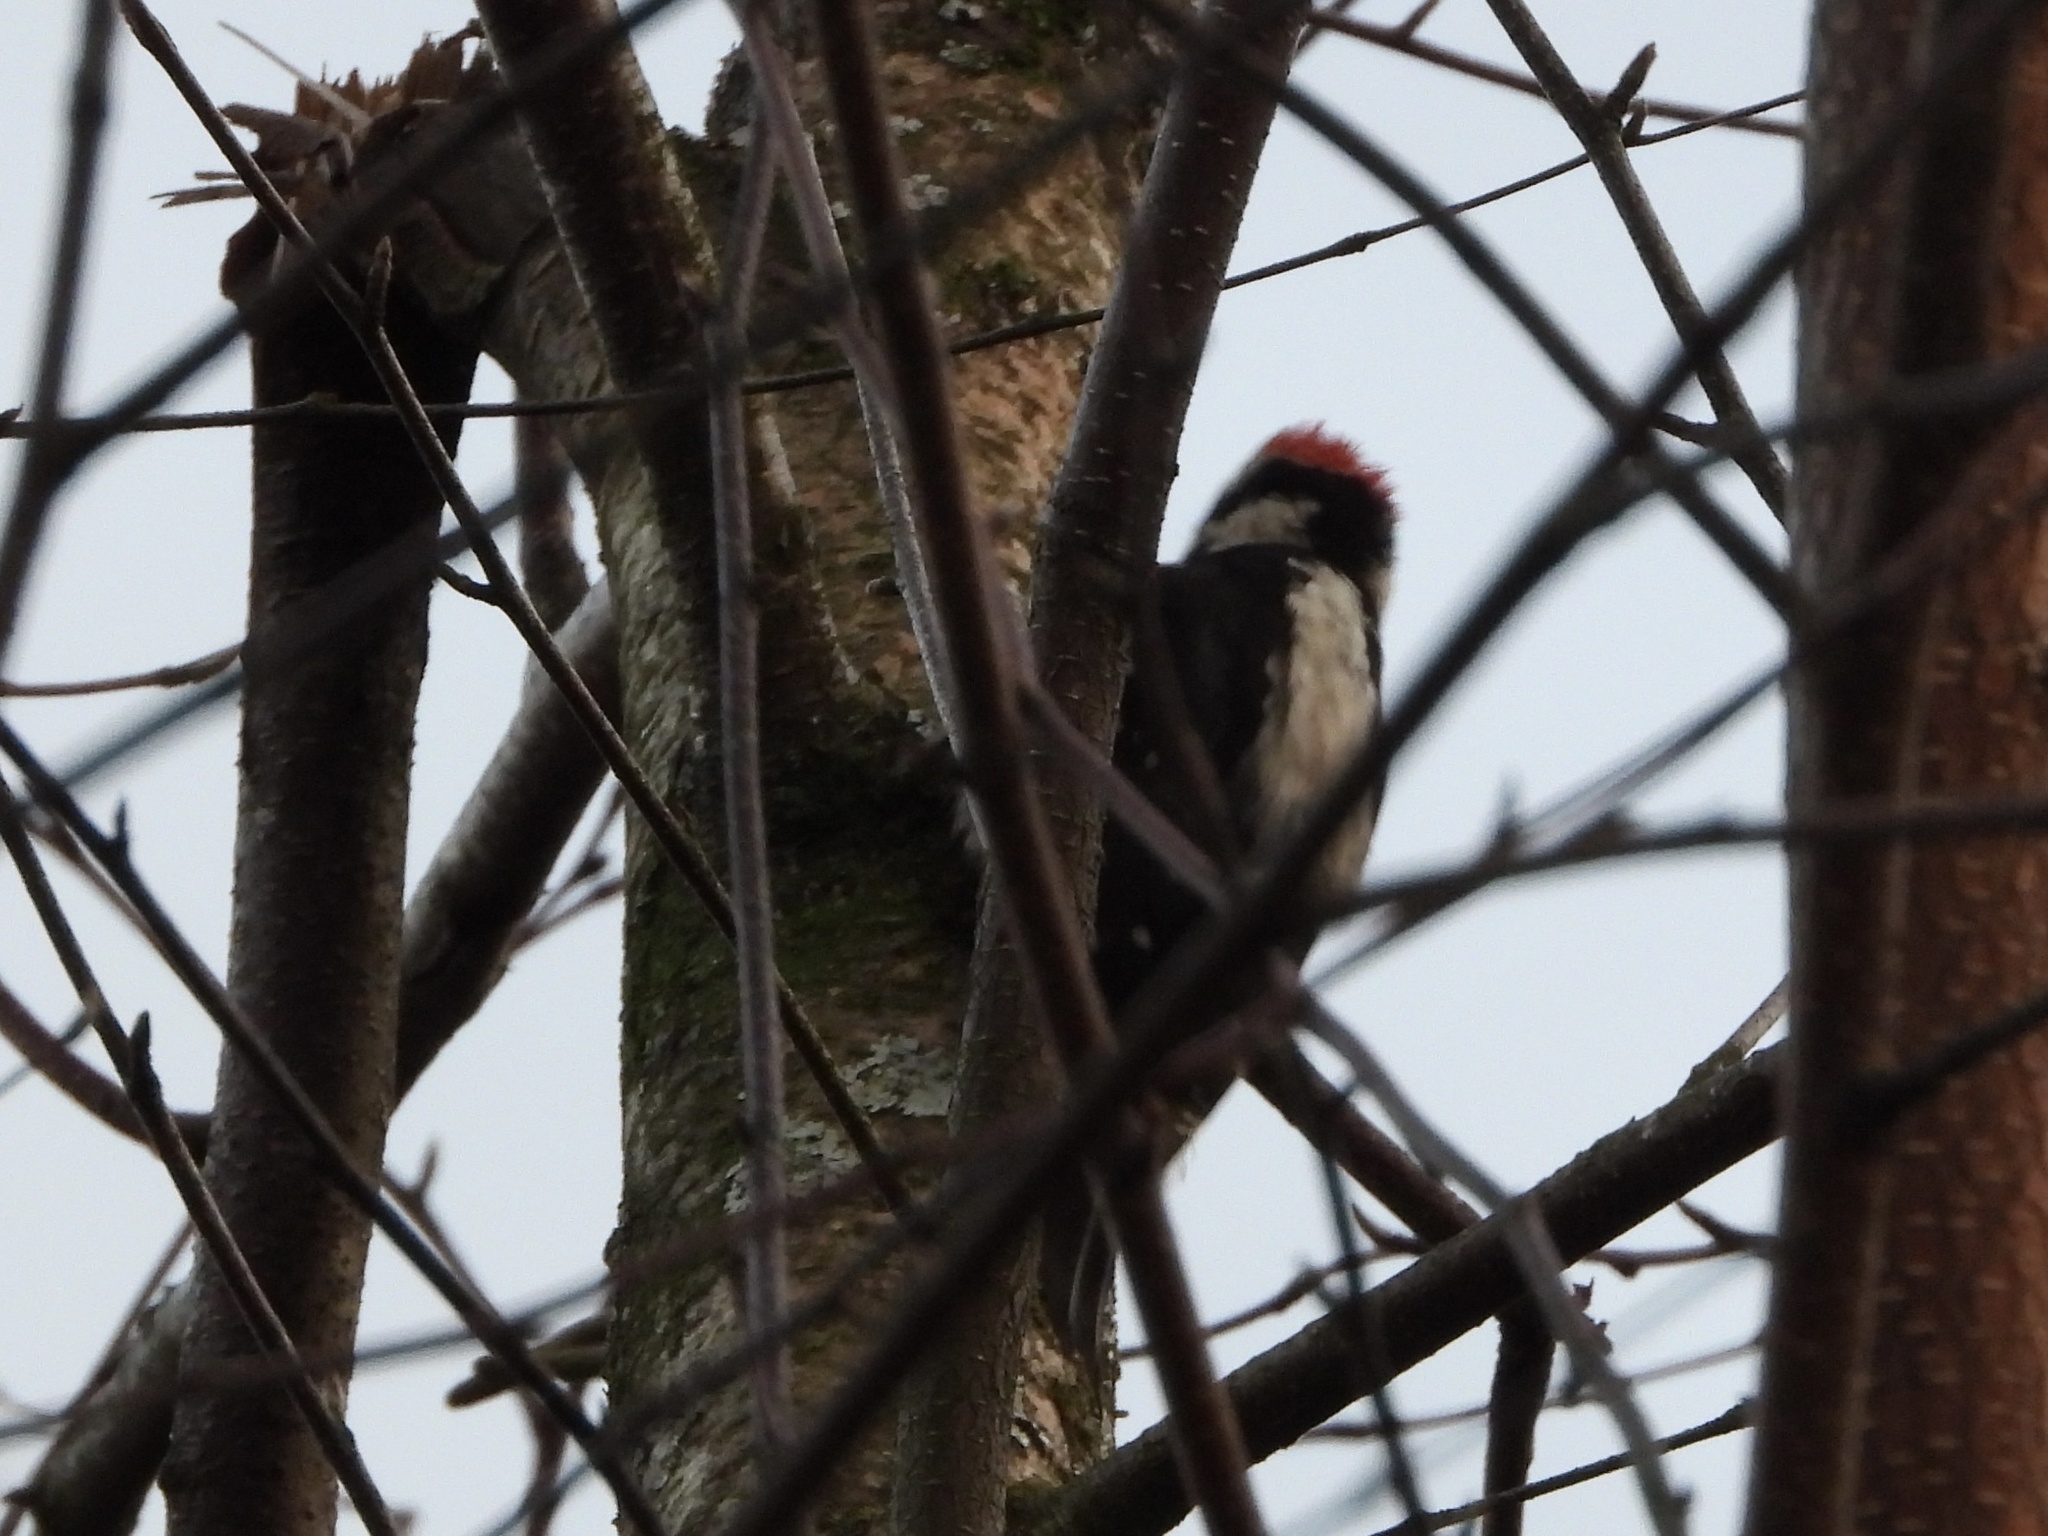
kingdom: Animalia
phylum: Chordata
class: Aves
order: Piciformes
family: Picidae
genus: Dryobates
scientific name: Dryobates pubescens
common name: Downy woodpecker
